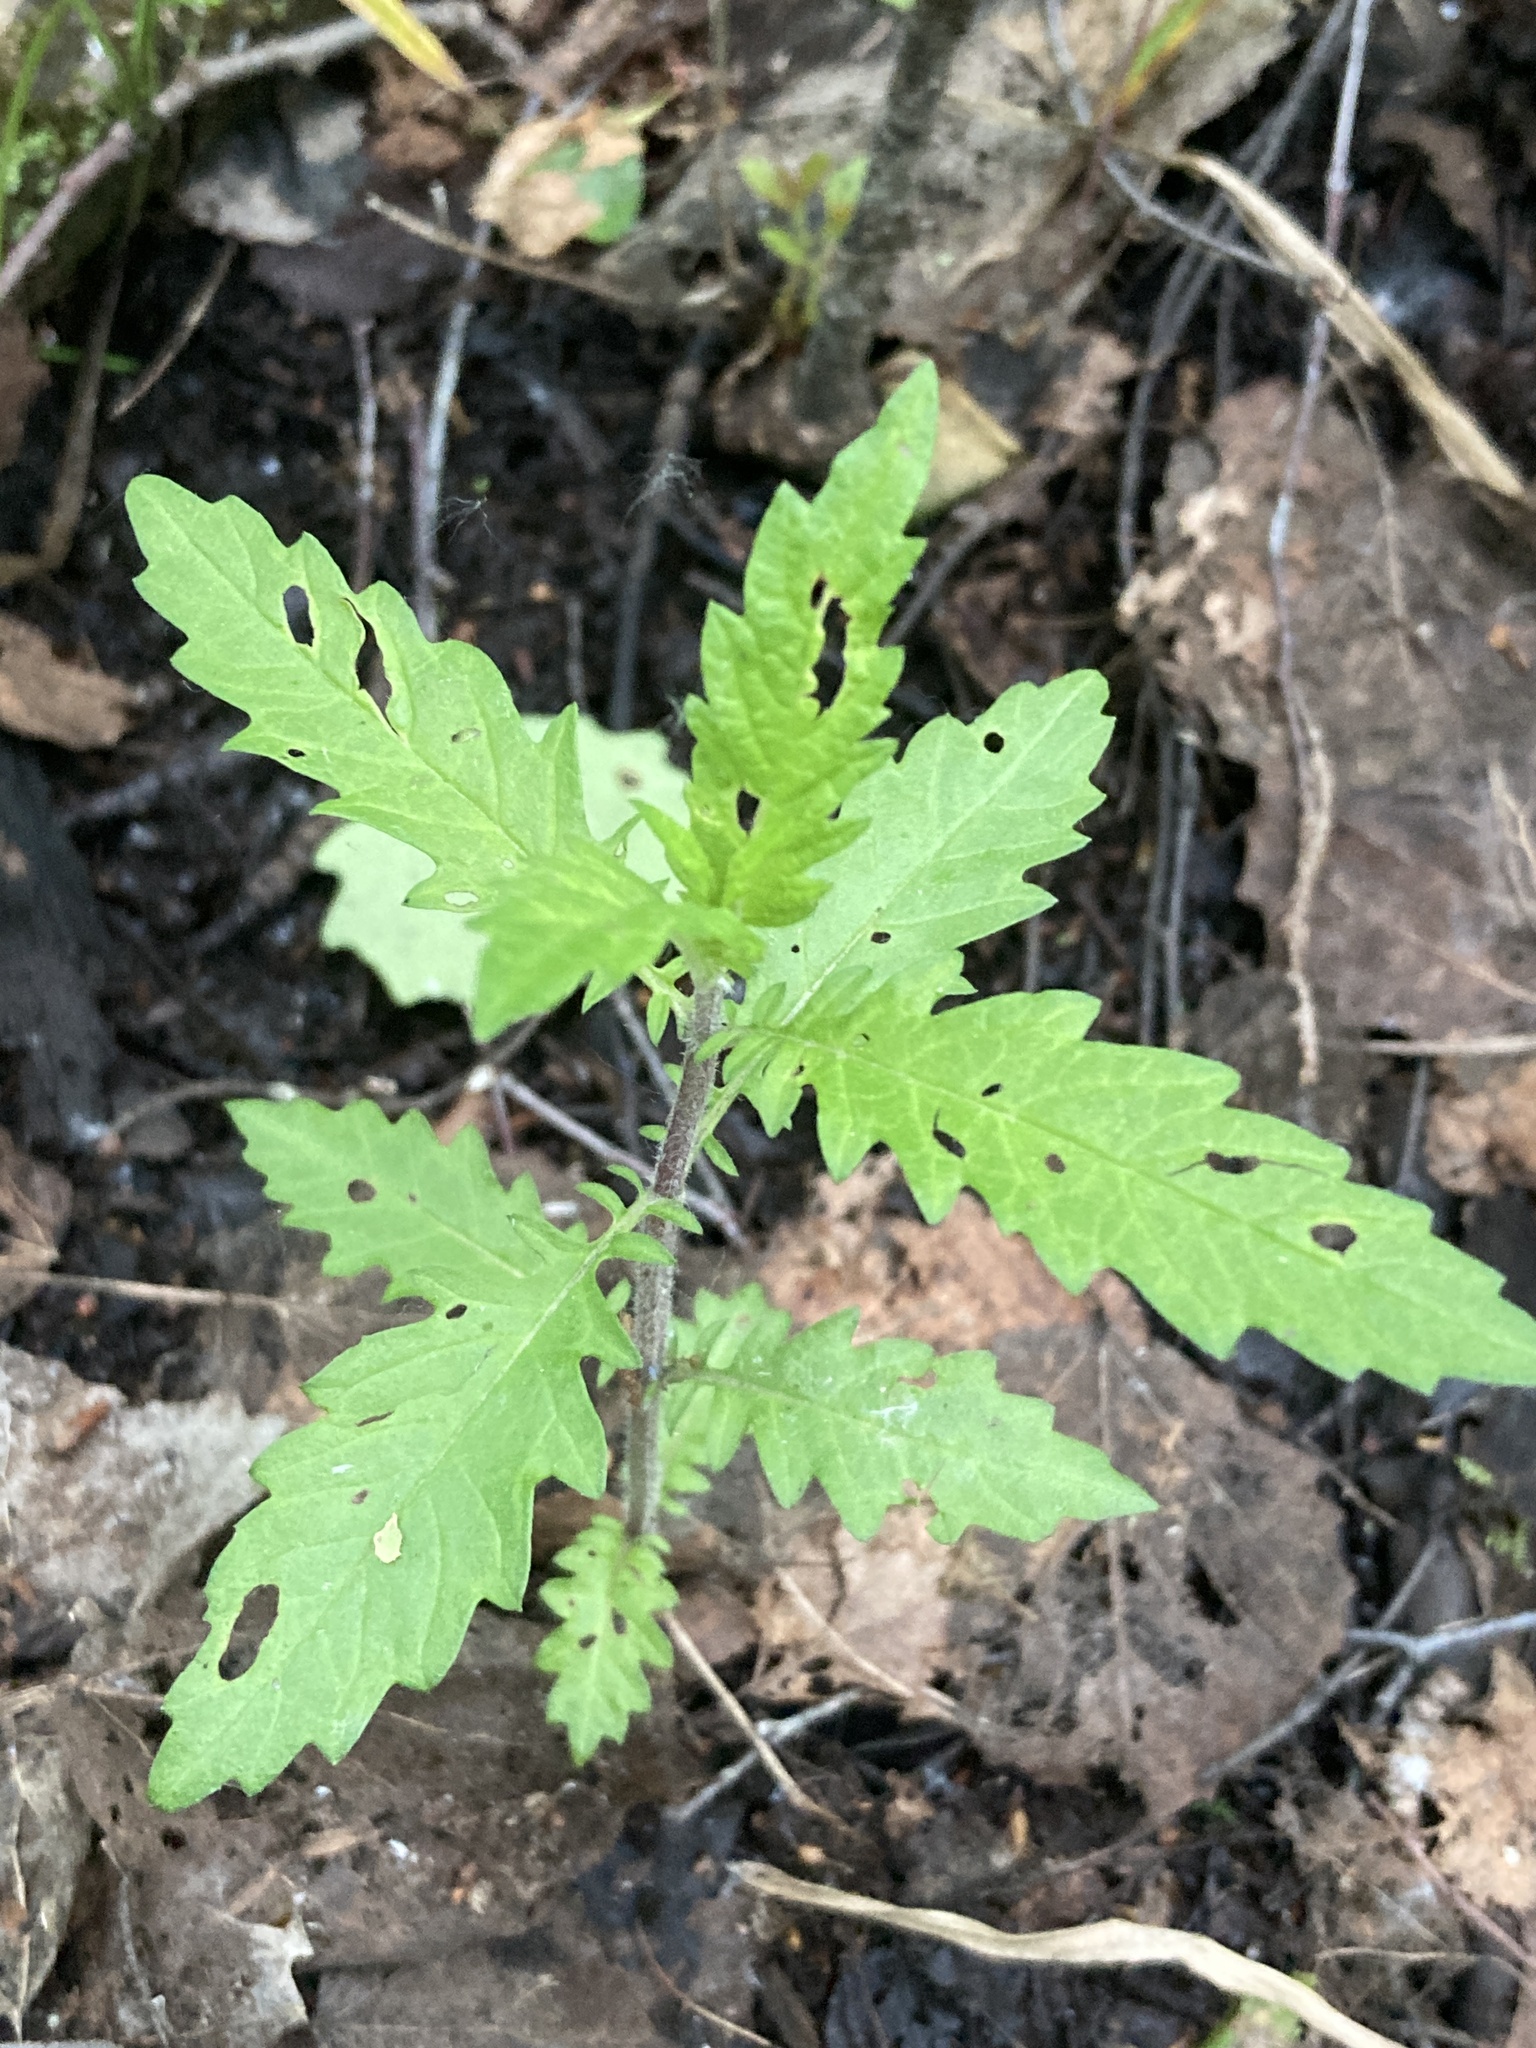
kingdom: Plantae
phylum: Tracheophyta
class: Magnoliopsida
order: Lamiales
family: Lamiaceae
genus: Lycopus
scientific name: Lycopus europaeus
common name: European bugleweed
